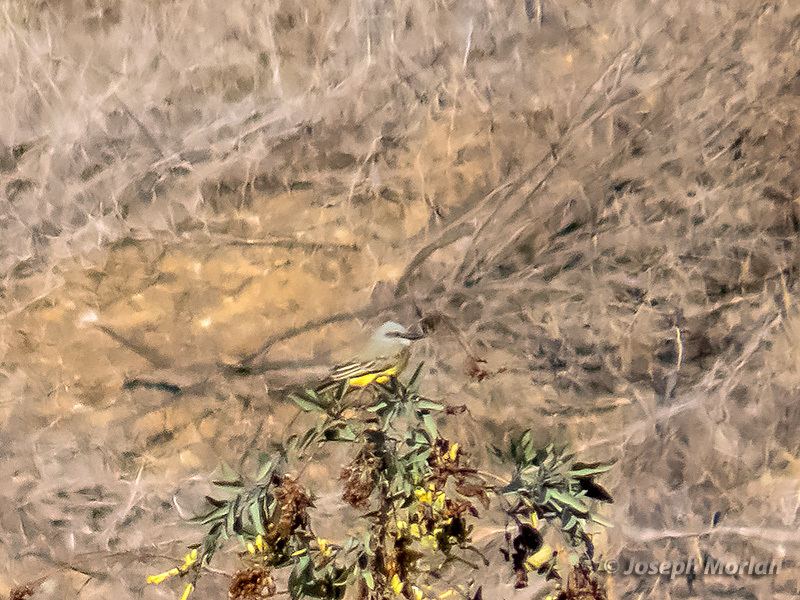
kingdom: Animalia
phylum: Chordata
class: Aves
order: Passeriformes
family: Tyrannidae
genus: Tyrannus
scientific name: Tyrannus melancholicus
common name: Tropical kingbird
